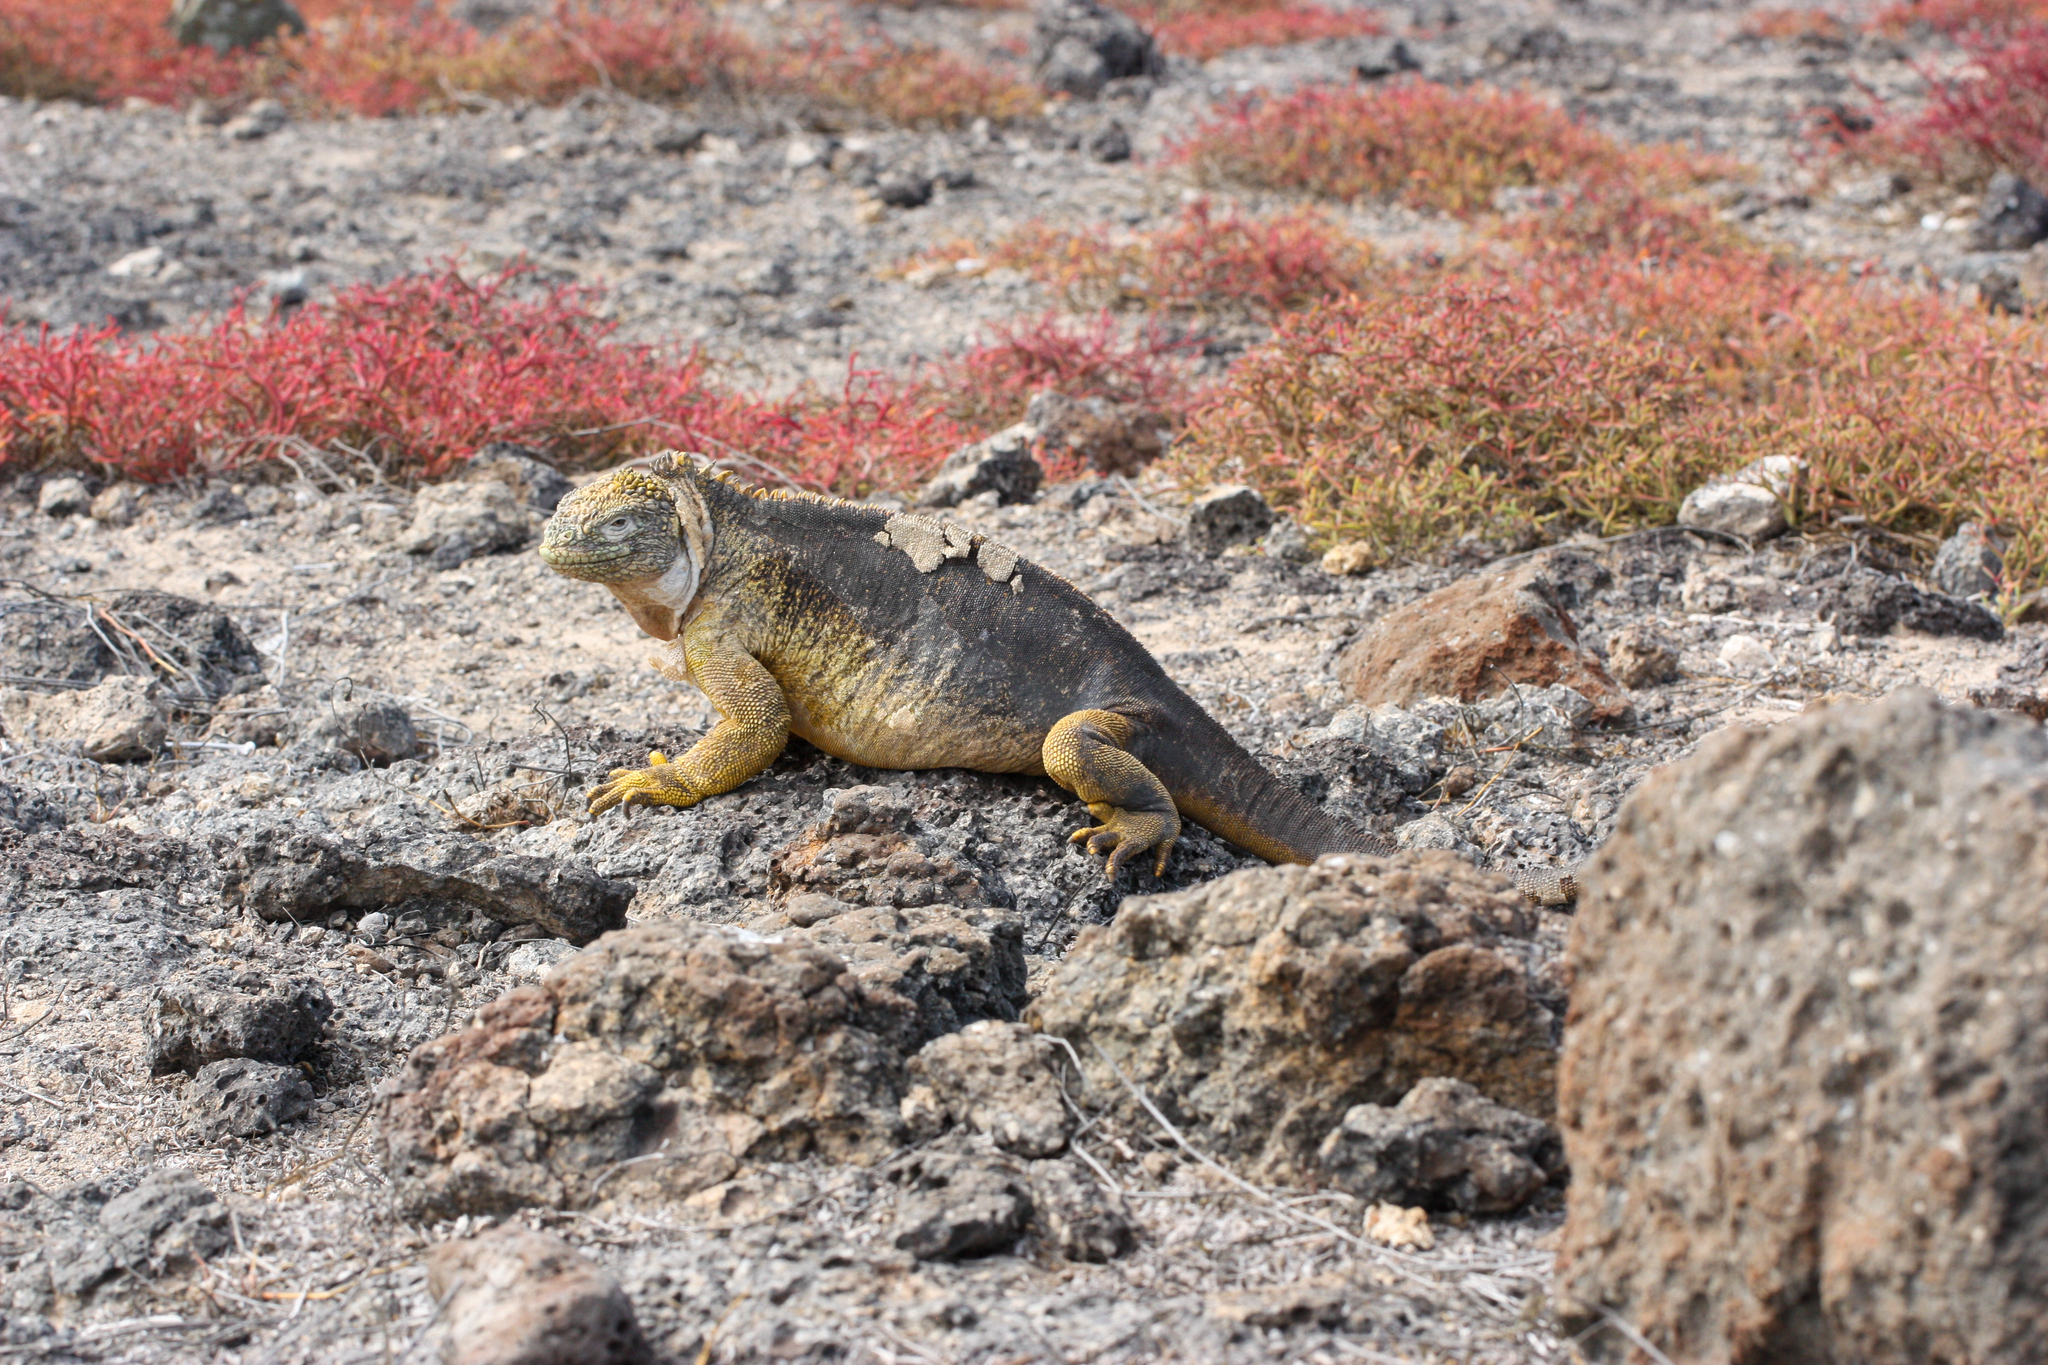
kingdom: Animalia
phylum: Chordata
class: Squamata
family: Iguanidae
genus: Conolophus
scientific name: Conolophus subcristatus
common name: Galapagos land iguana
